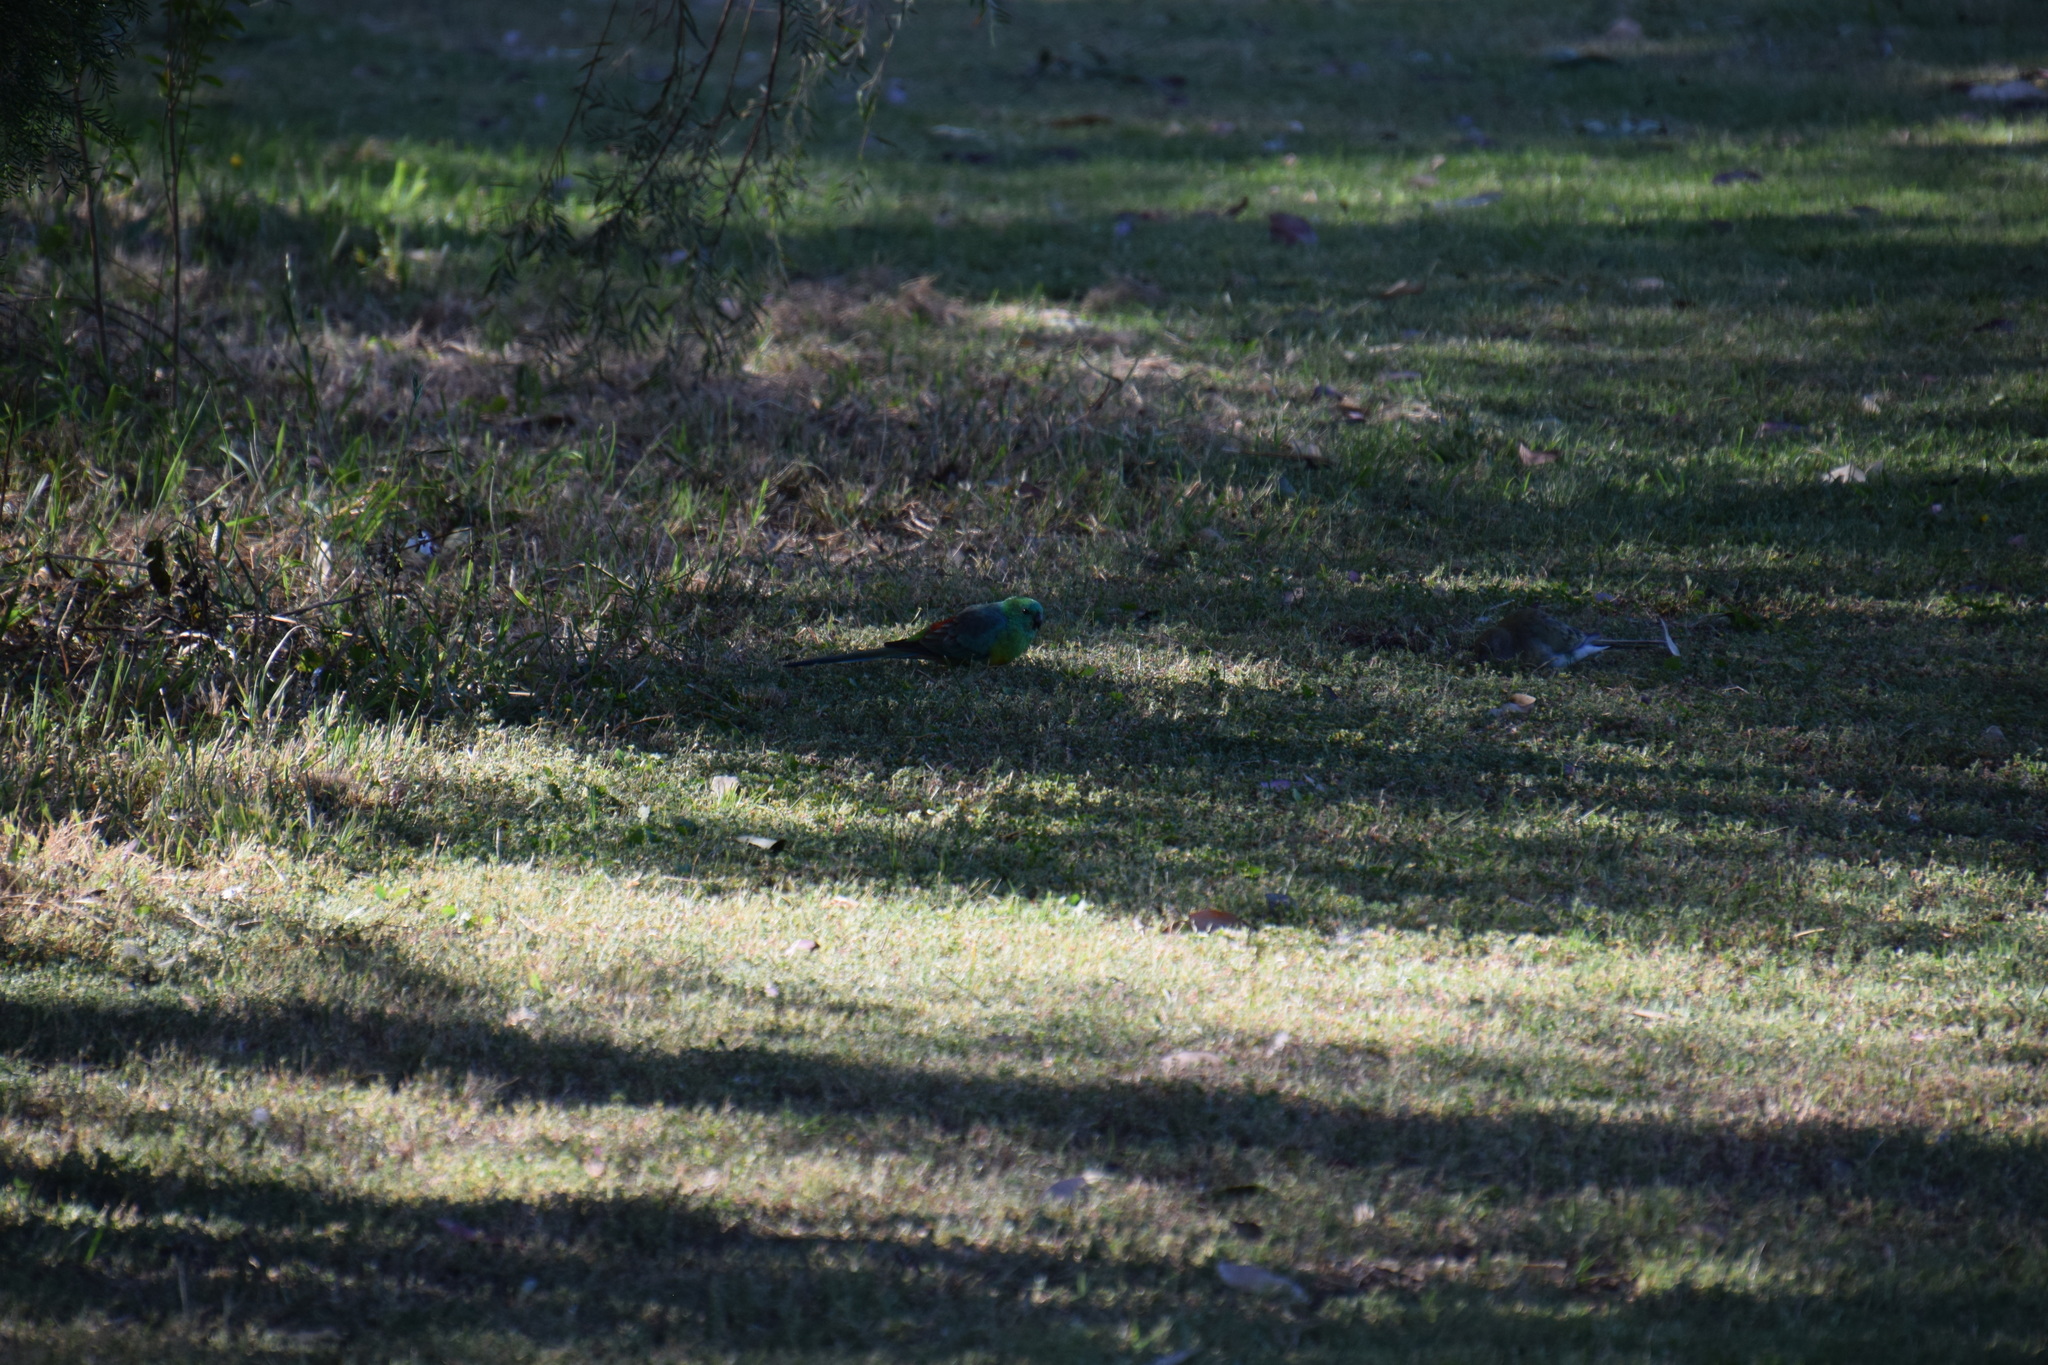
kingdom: Animalia
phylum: Chordata
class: Aves
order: Psittaciformes
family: Psittacidae
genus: Psephotus
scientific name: Psephotus haematonotus
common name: Red-rumped parrot
